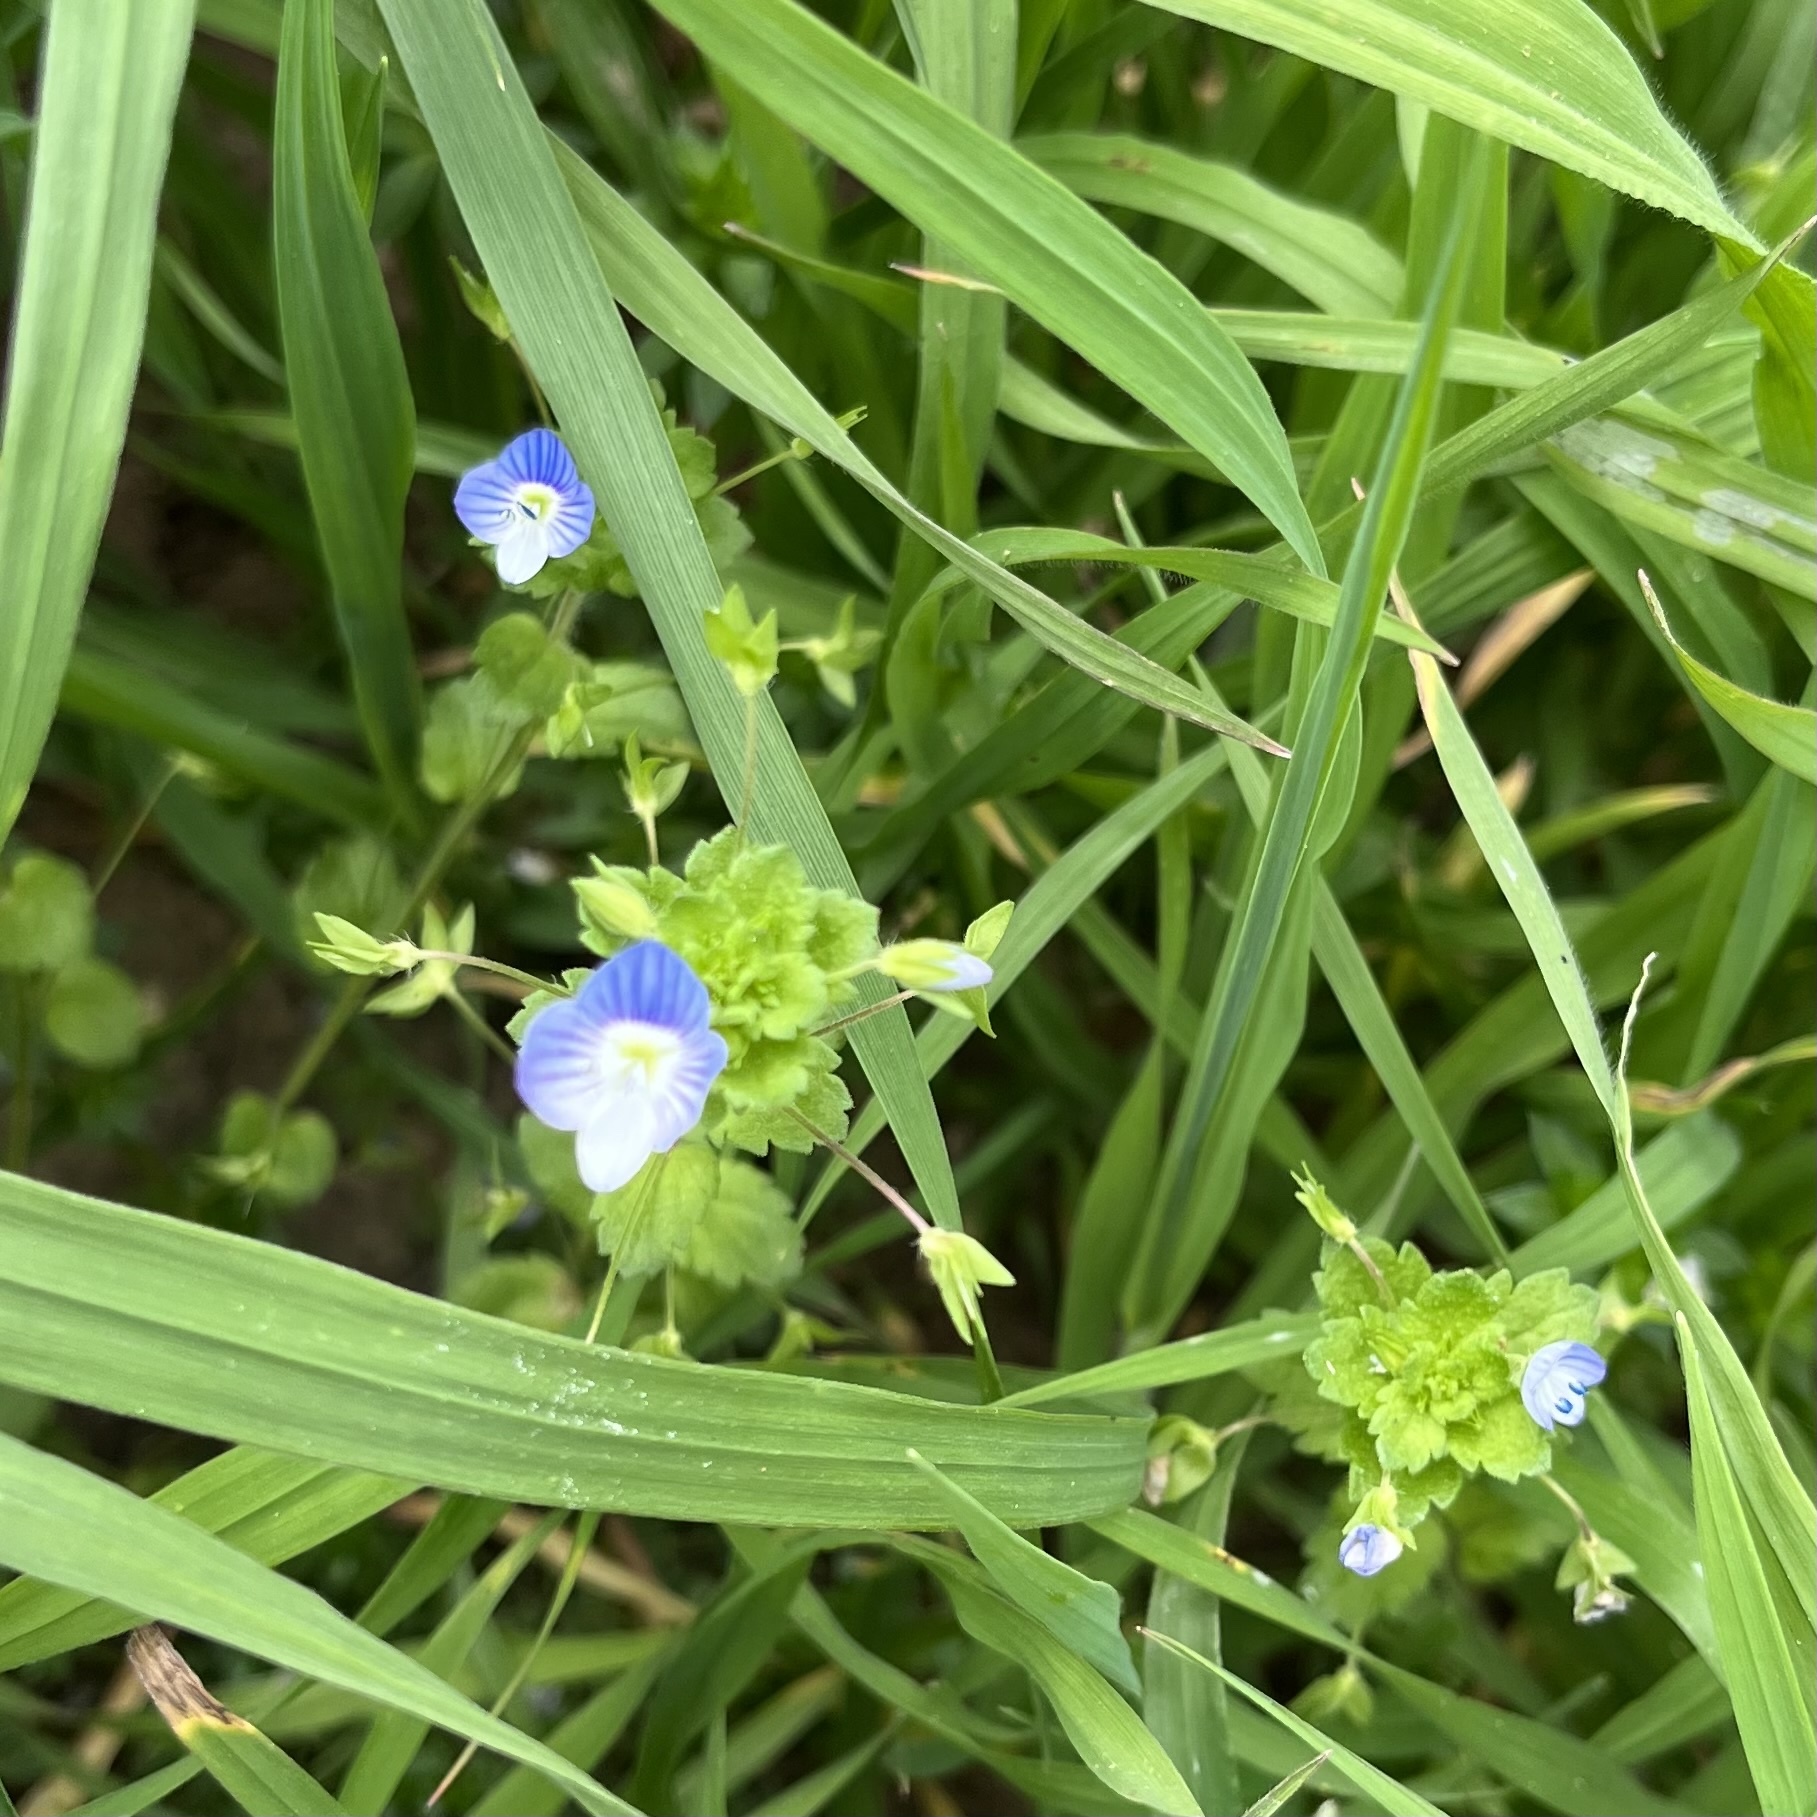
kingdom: Plantae
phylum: Tracheophyta
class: Magnoliopsida
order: Lamiales
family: Plantaginaceae
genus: Veronica
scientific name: Veronica persica
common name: Common field-speedwell
